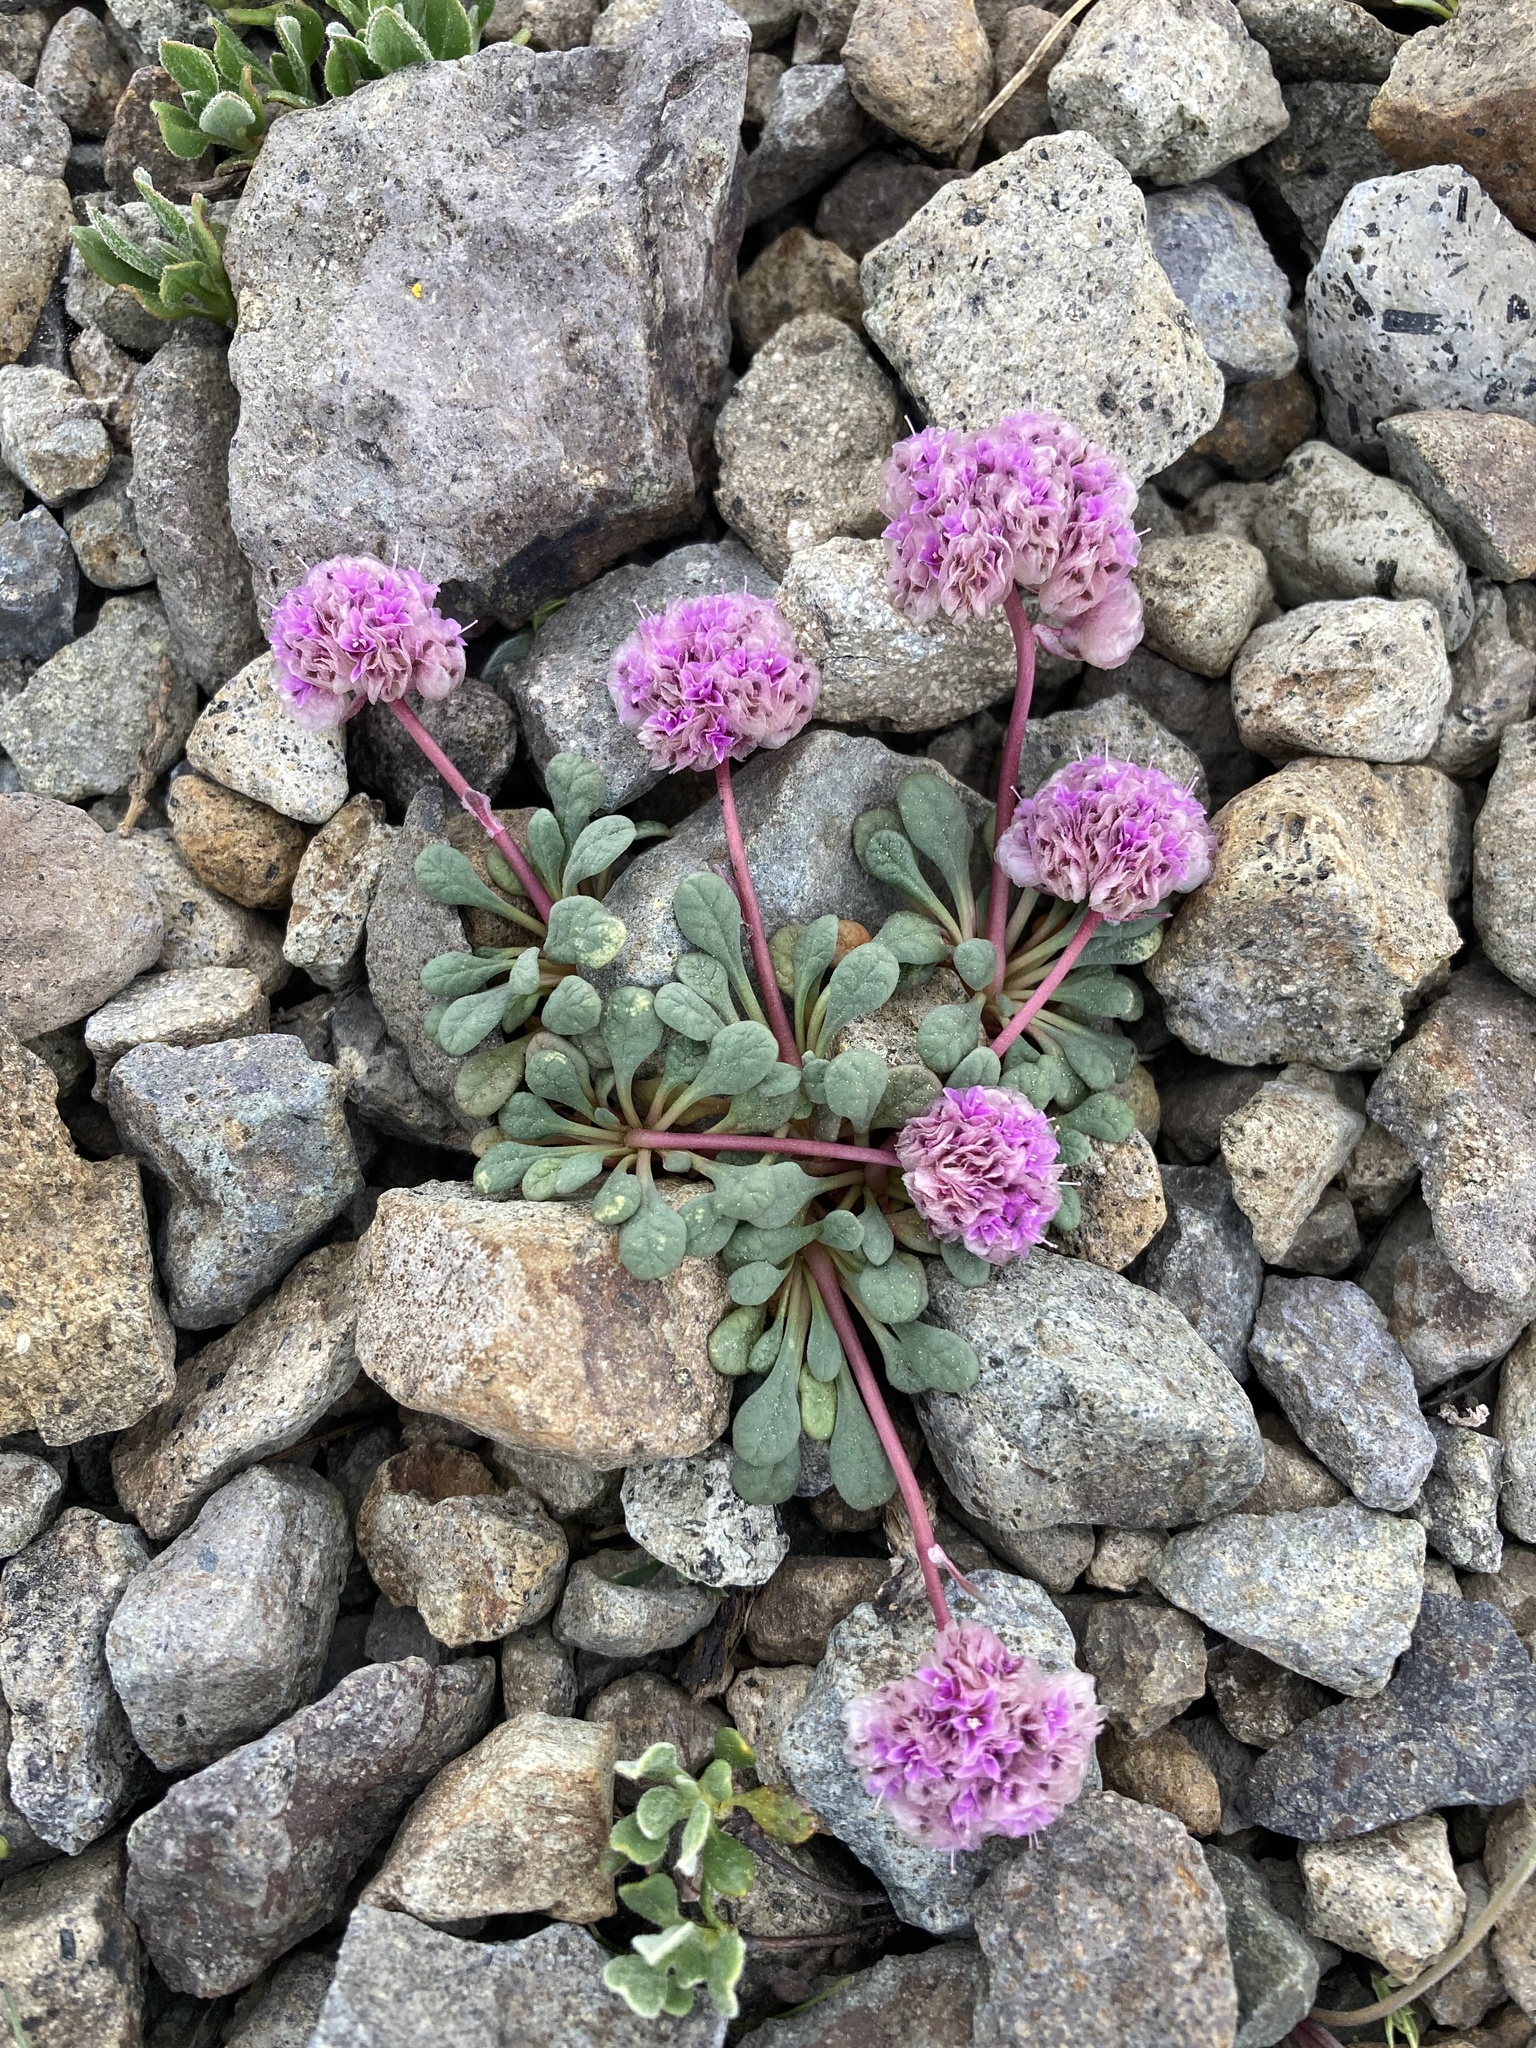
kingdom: Plantae
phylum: Tracheophyta
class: Magnoliopsida
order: Caryophyllales
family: Montiaceae
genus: Calyptridium
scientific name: Calyptridium umbellatum
